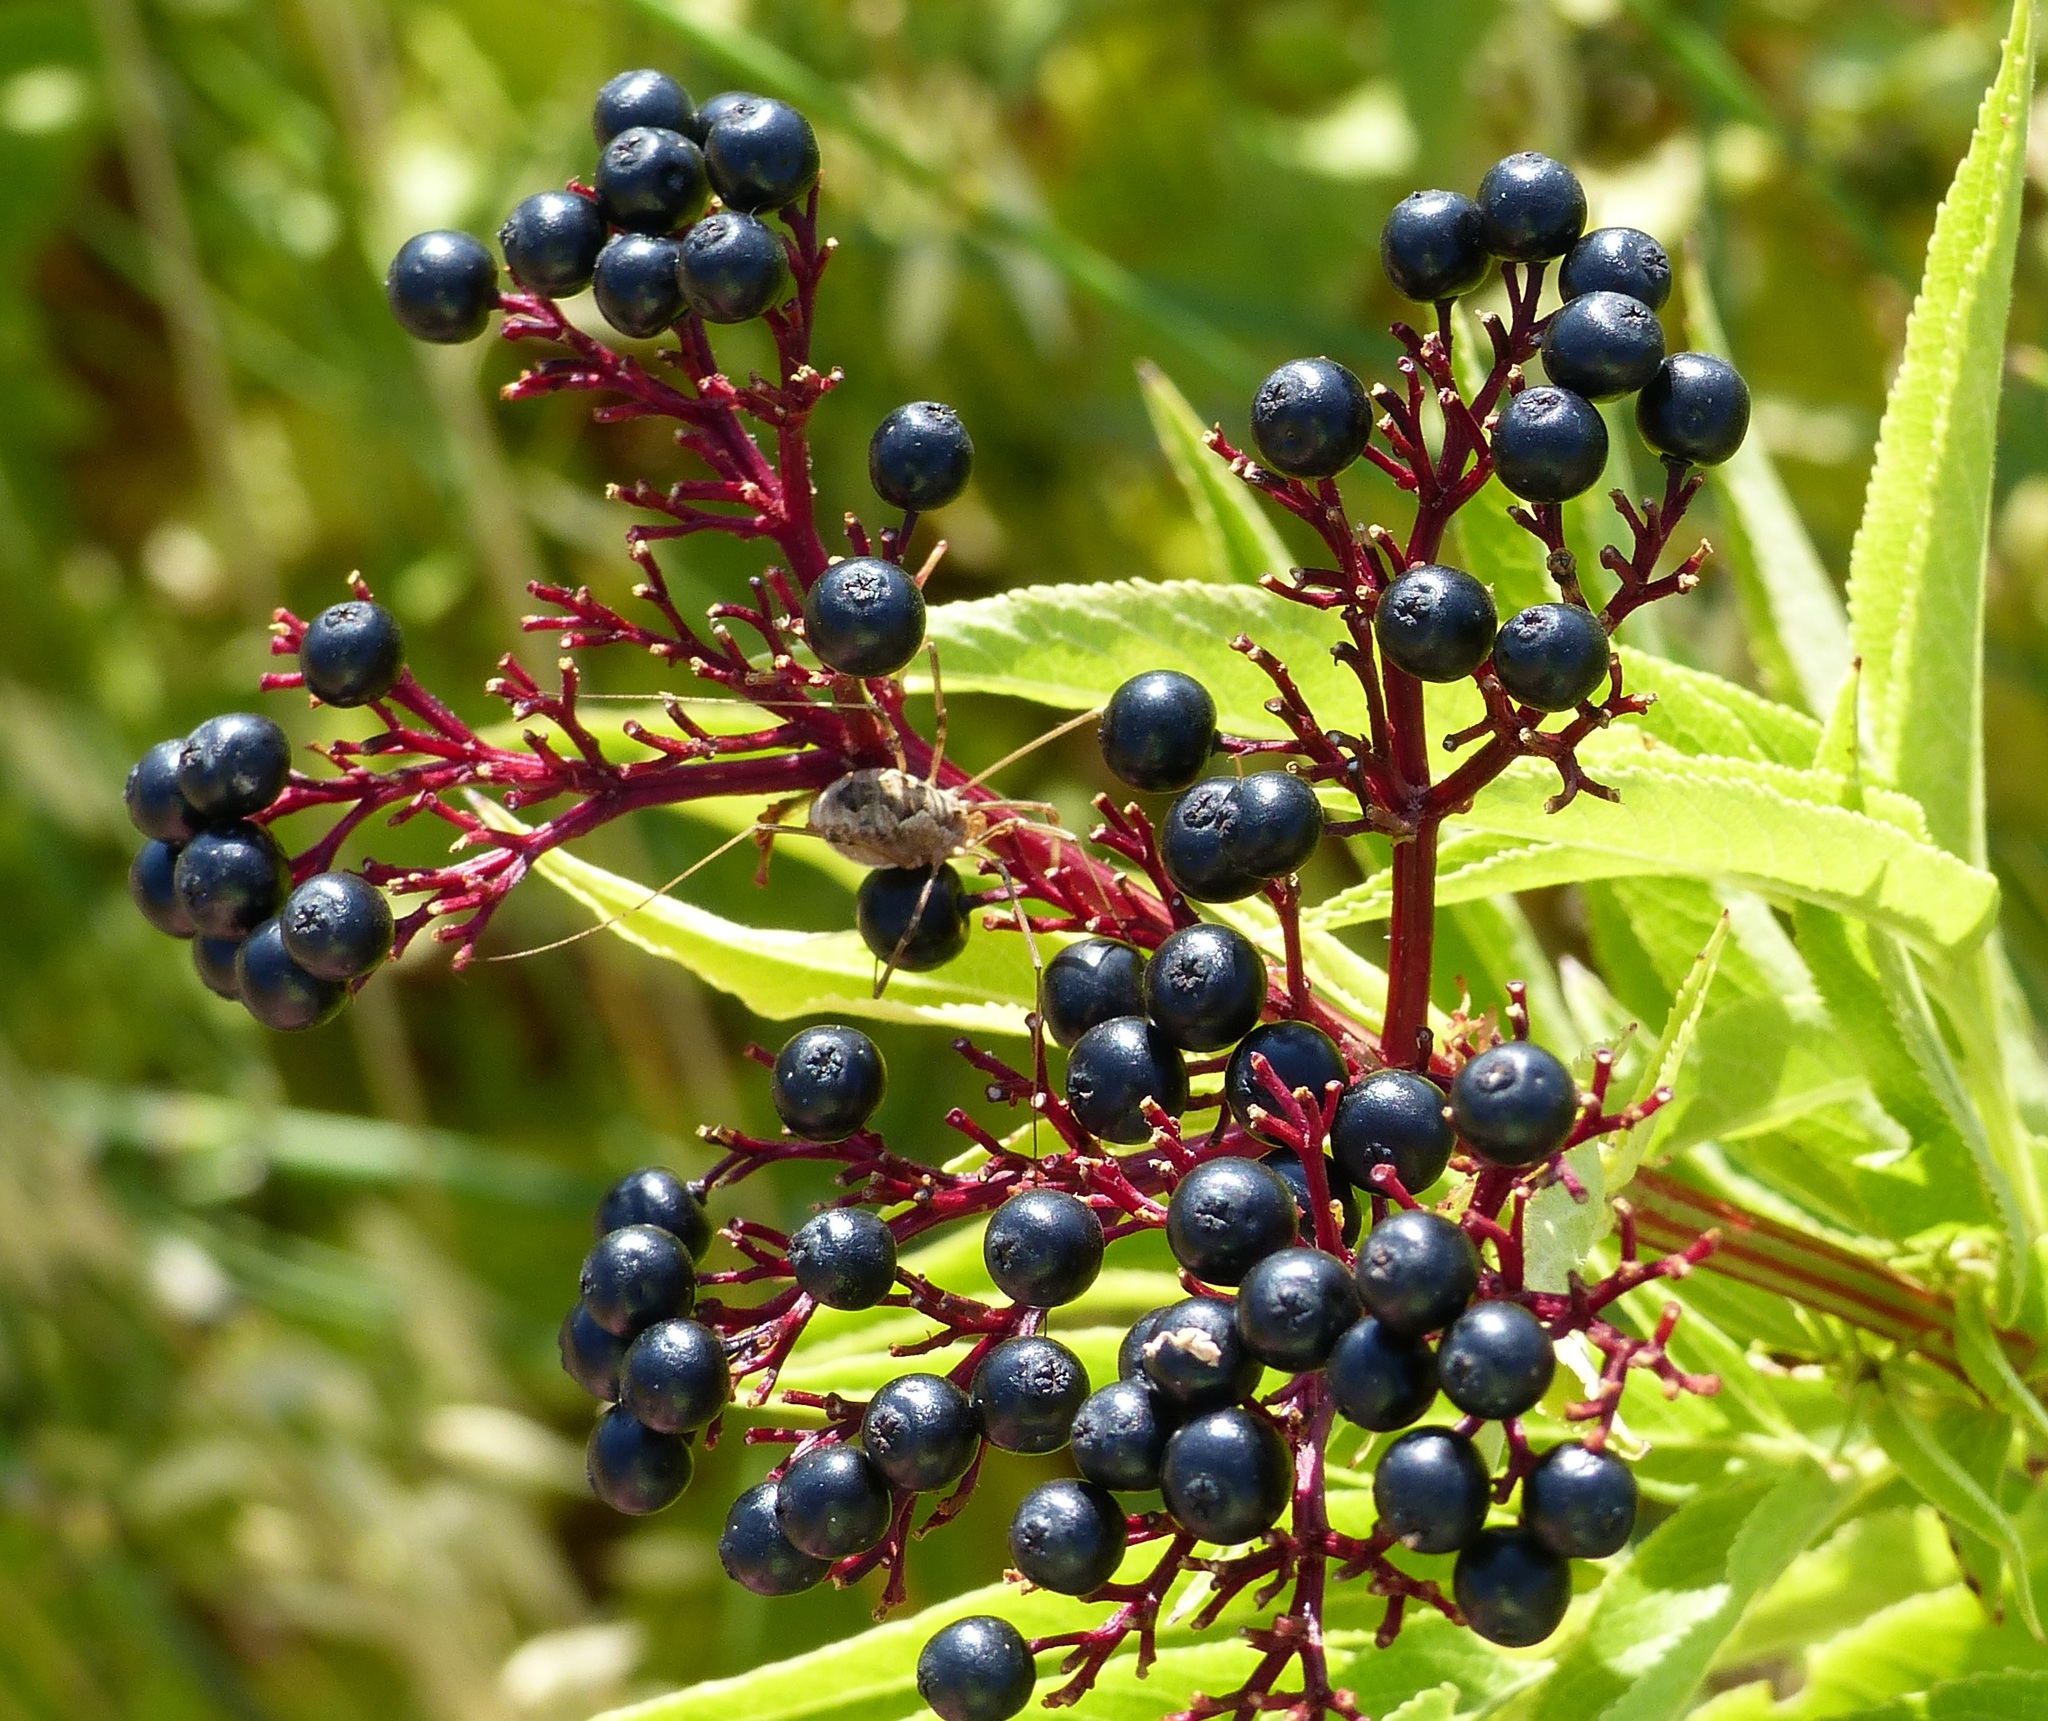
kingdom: Animalia
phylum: Arthropoda
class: Arachnida
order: Opiliones
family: Phalangiidae
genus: Phalangium
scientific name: Phalangium opilio
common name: Daddy longleg
